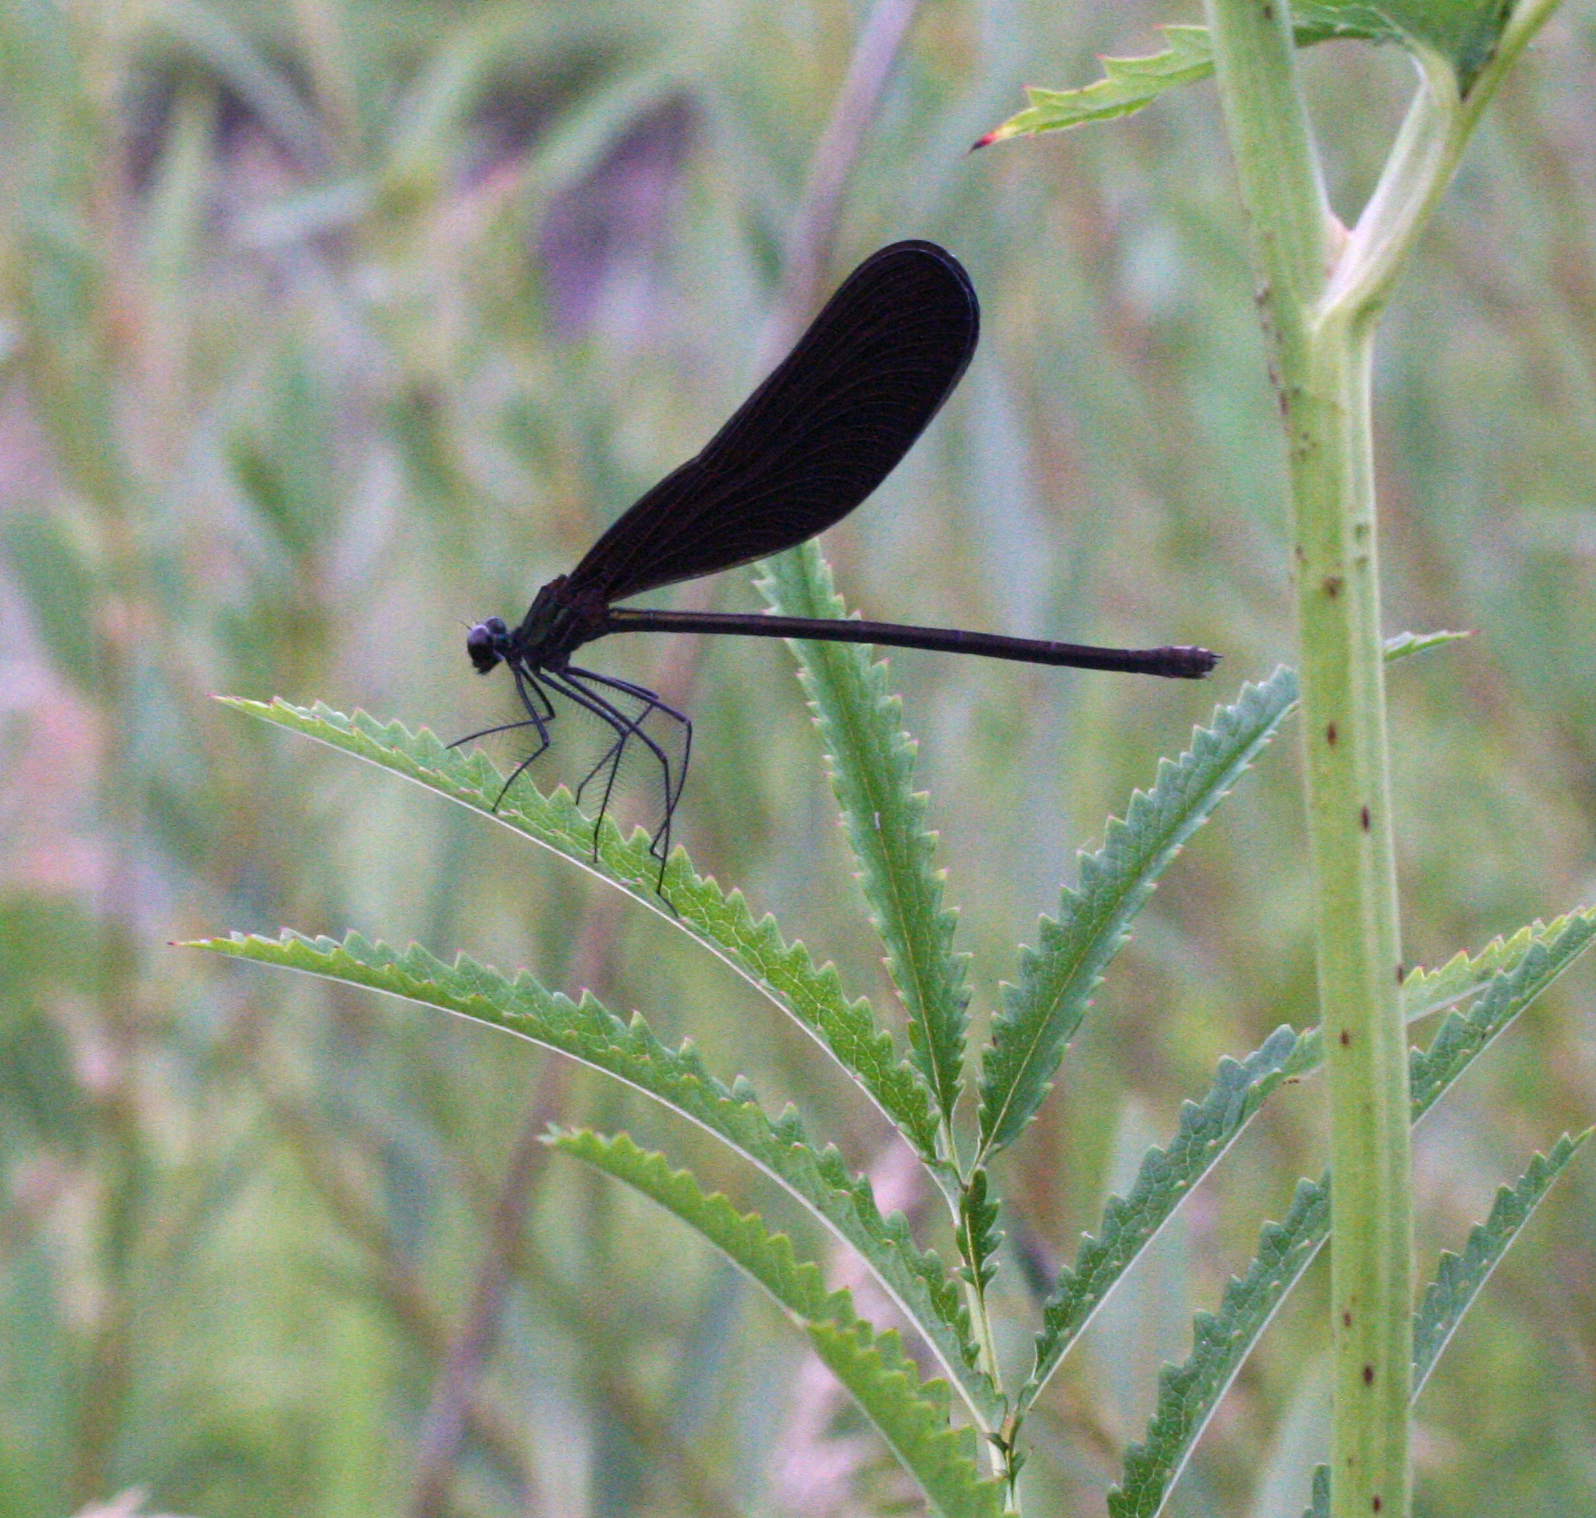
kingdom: Animalia
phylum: Arthropoda
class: Insecta
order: Odonata
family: Calopterygidae
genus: Atrocalopteryx
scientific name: Atrocalopteryx atrata
